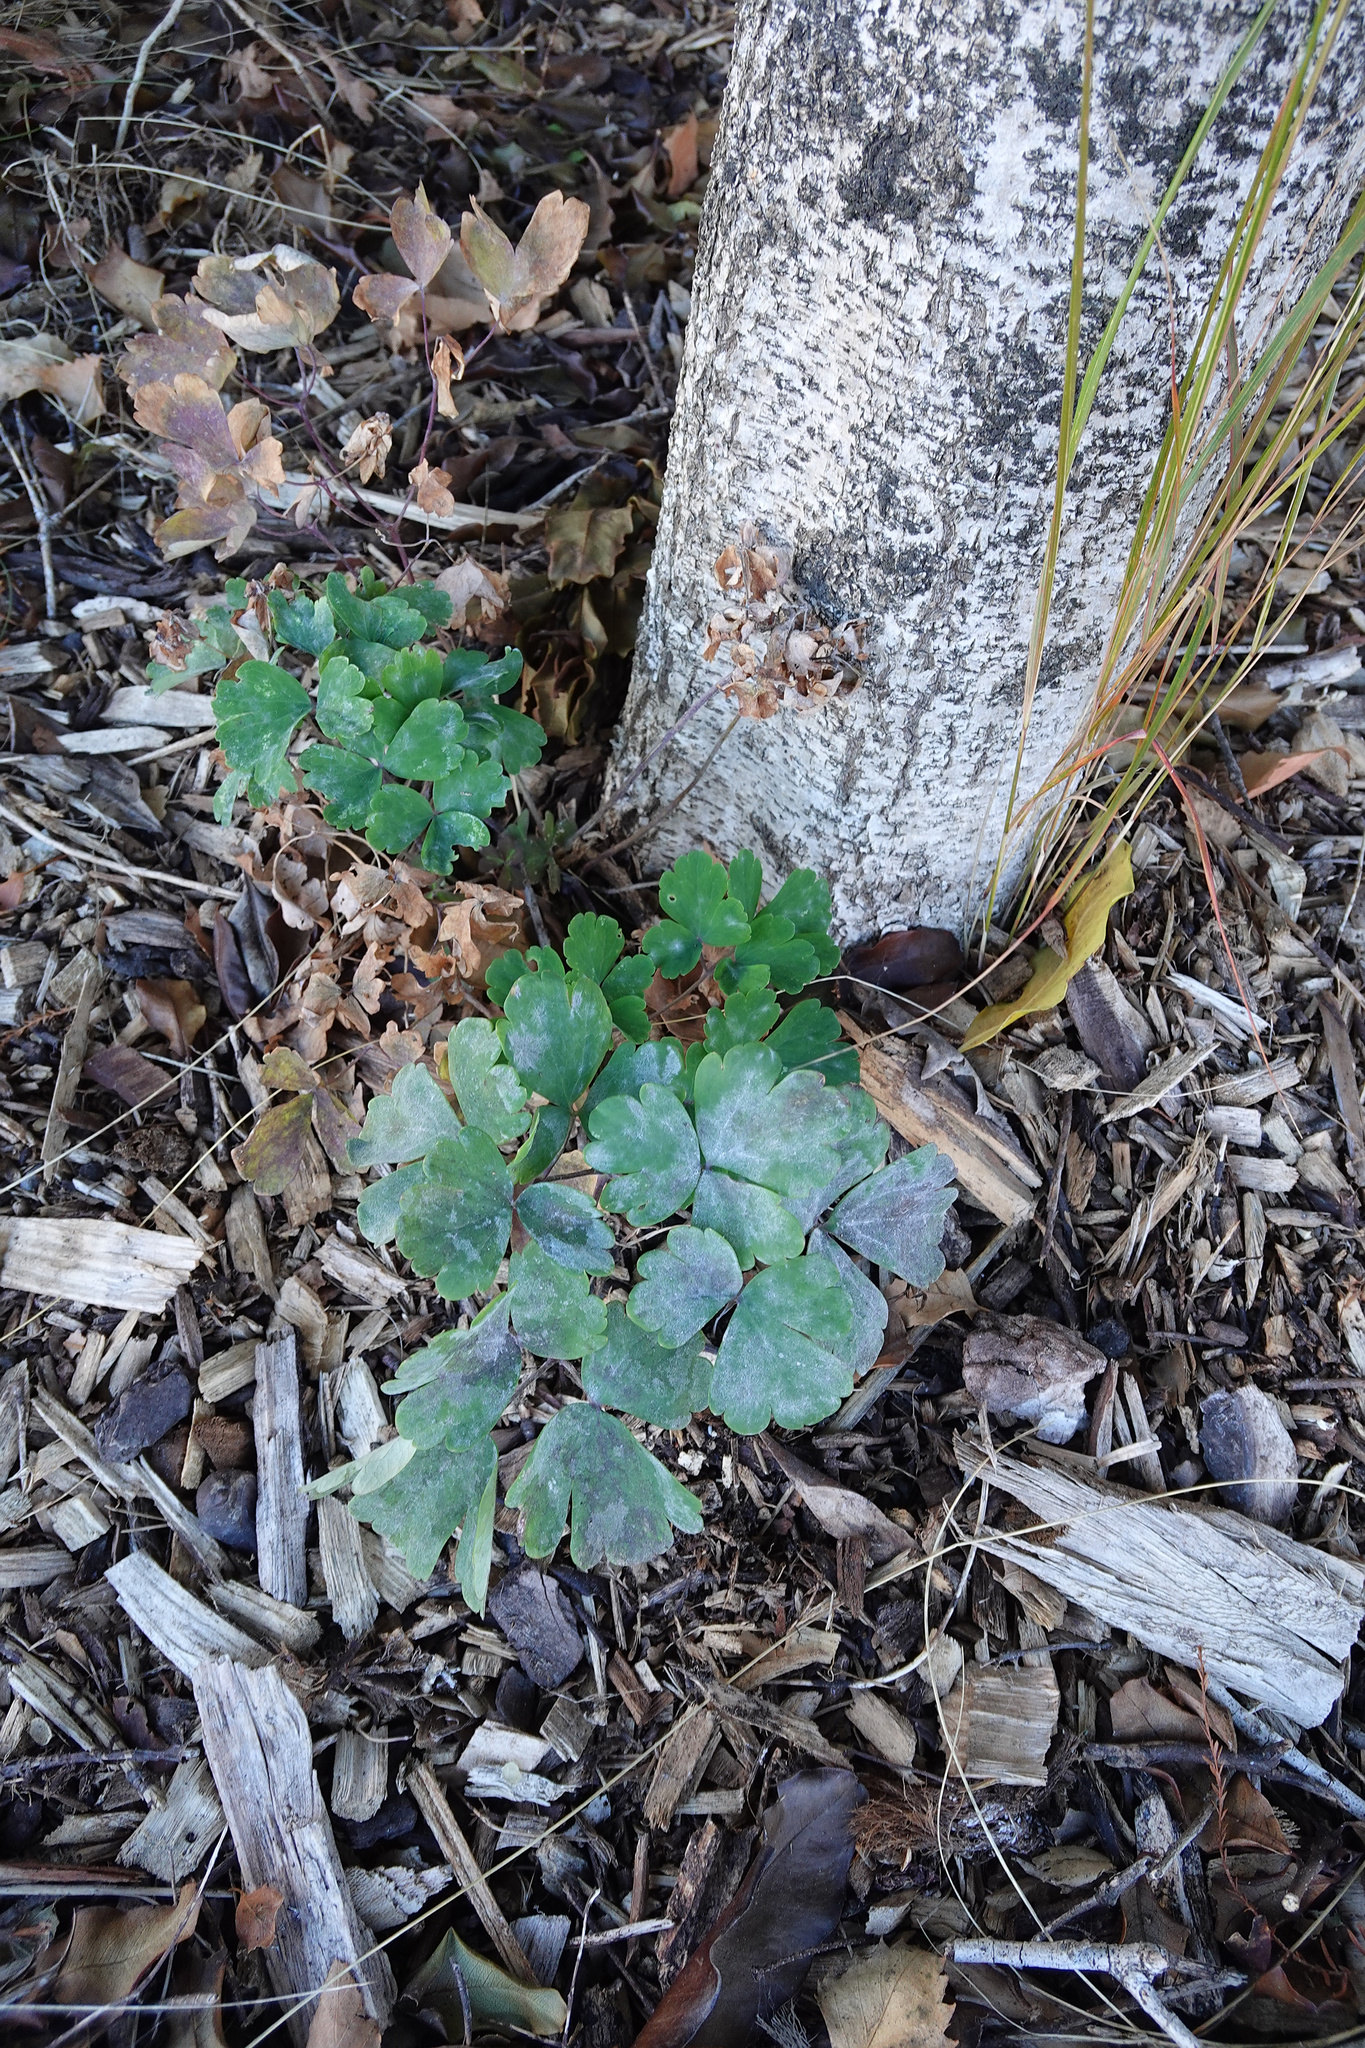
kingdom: Plantae
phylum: Tracheophyta
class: Magnoliopsida
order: Ranunculales
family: Ranunculaceae
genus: Aquilegia
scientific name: Aquilegia vulgaris
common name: Columbine
